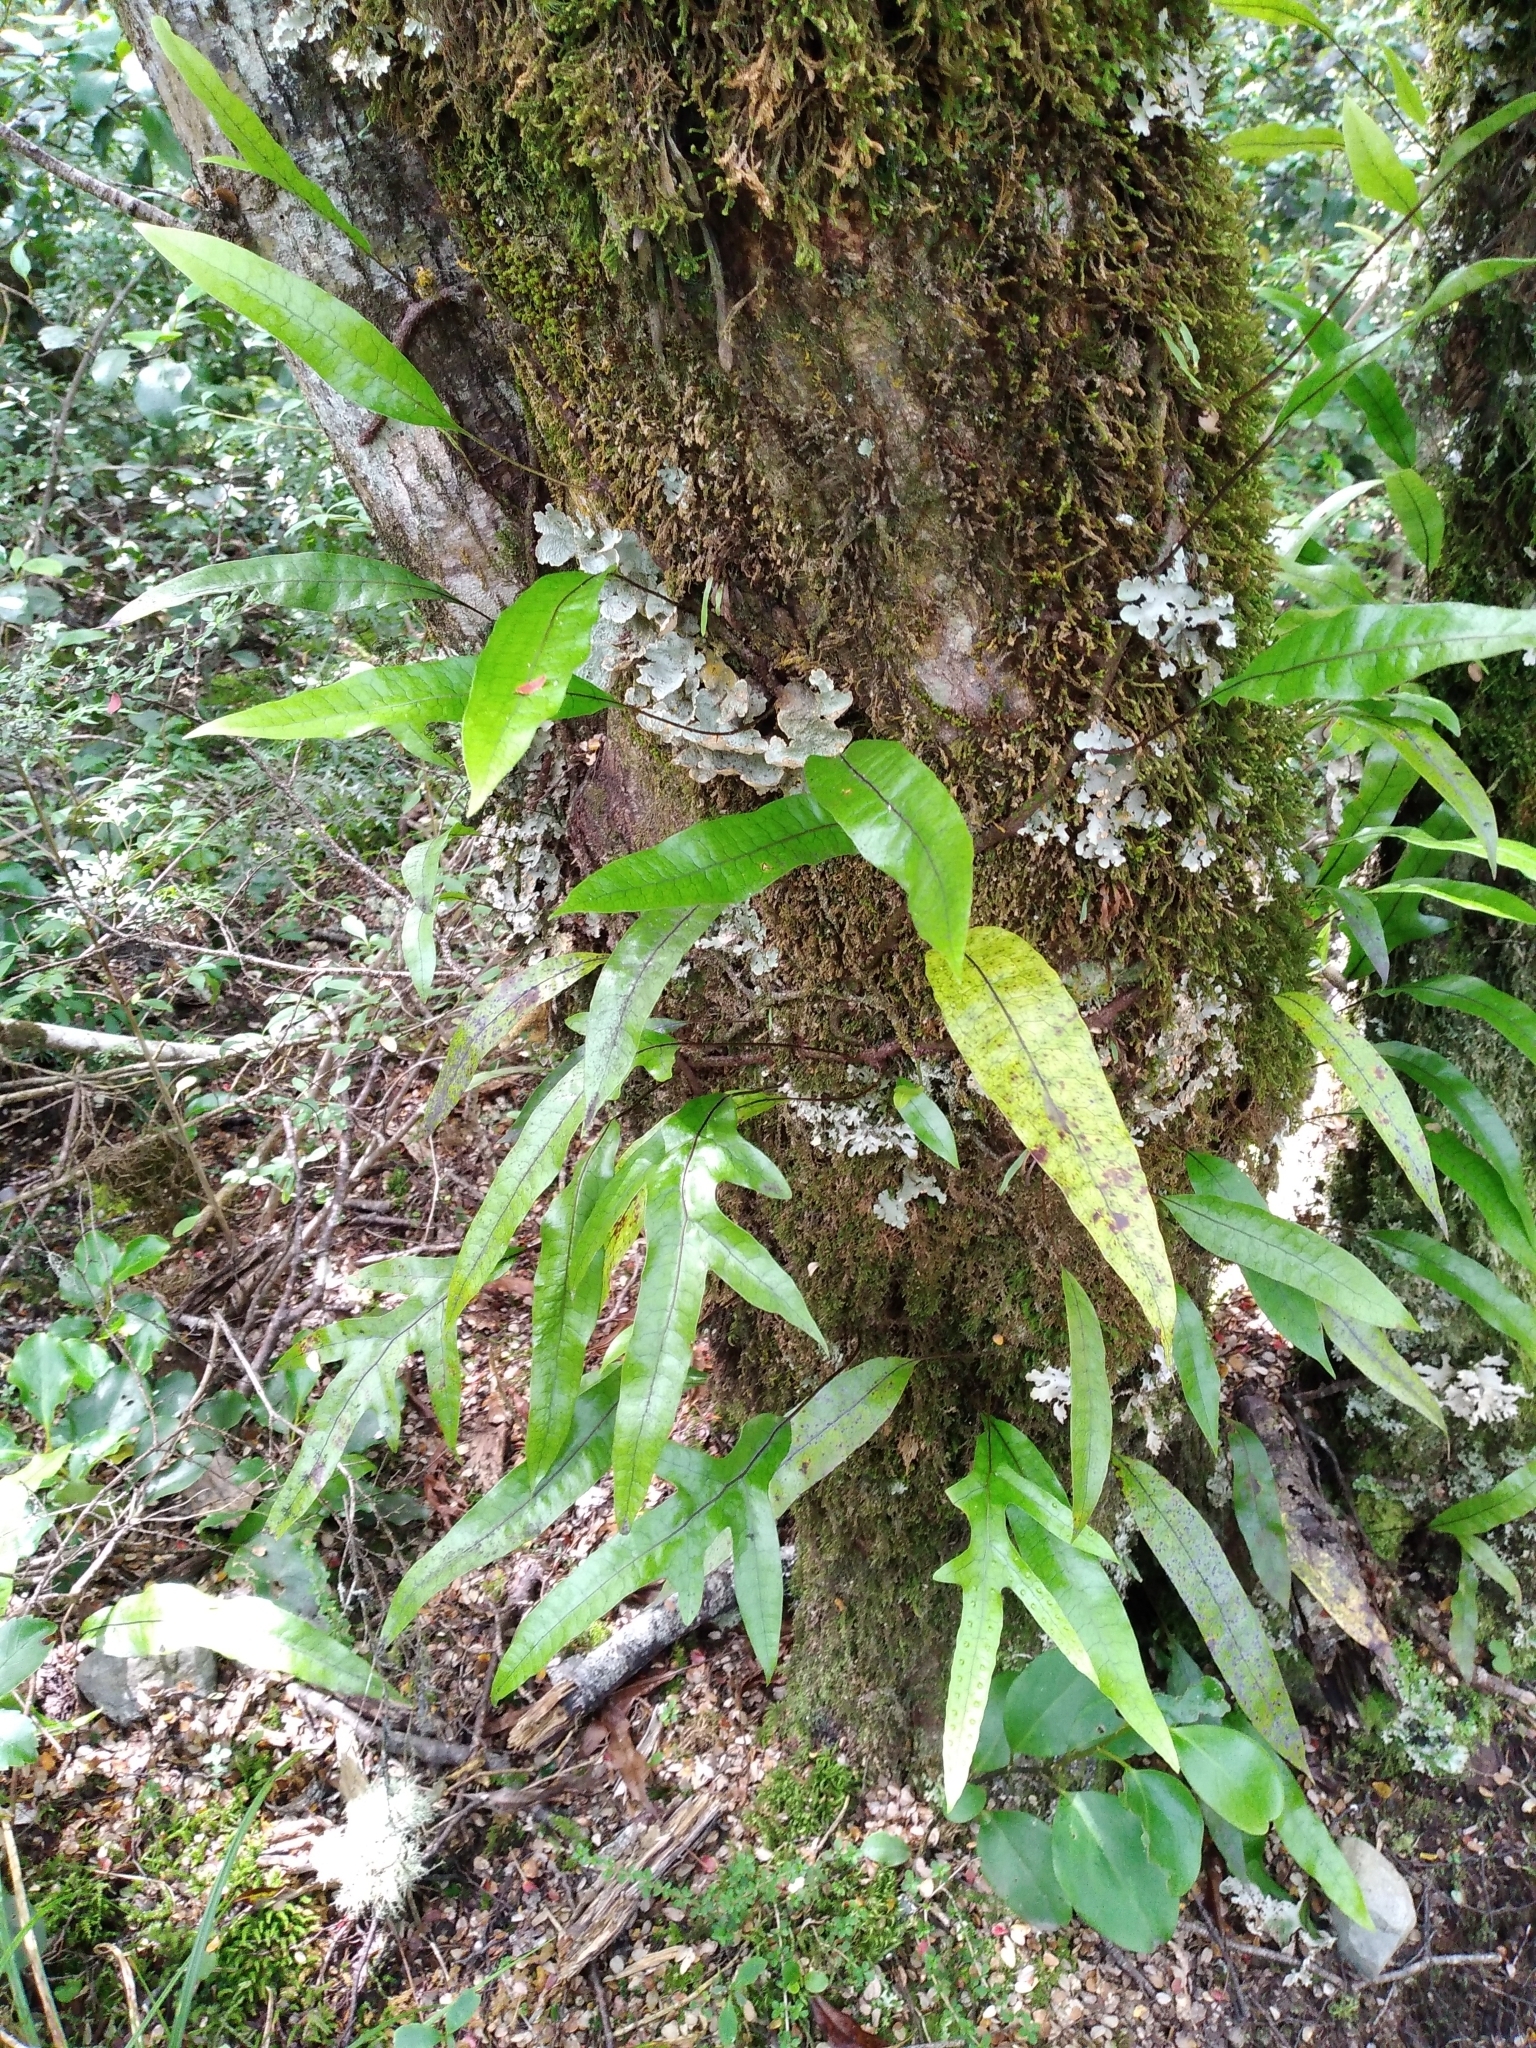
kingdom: Plantae
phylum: Tracheophyta
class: Polypodiopsida
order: Polypodiales
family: Polypodiaceae
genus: Lecanopteris
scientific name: Lecanopteris pustulata
